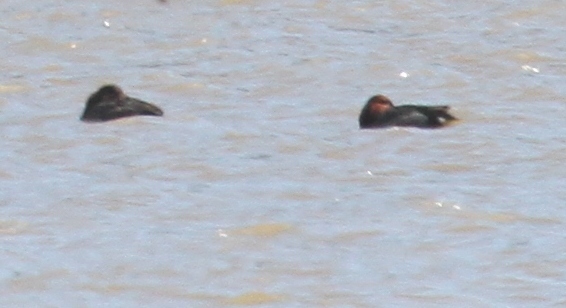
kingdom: Animalia
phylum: Chordata
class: Aves
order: Anseriformes
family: Anatidae
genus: Aythya
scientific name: Aythya nyroca
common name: Ferruginous duck
